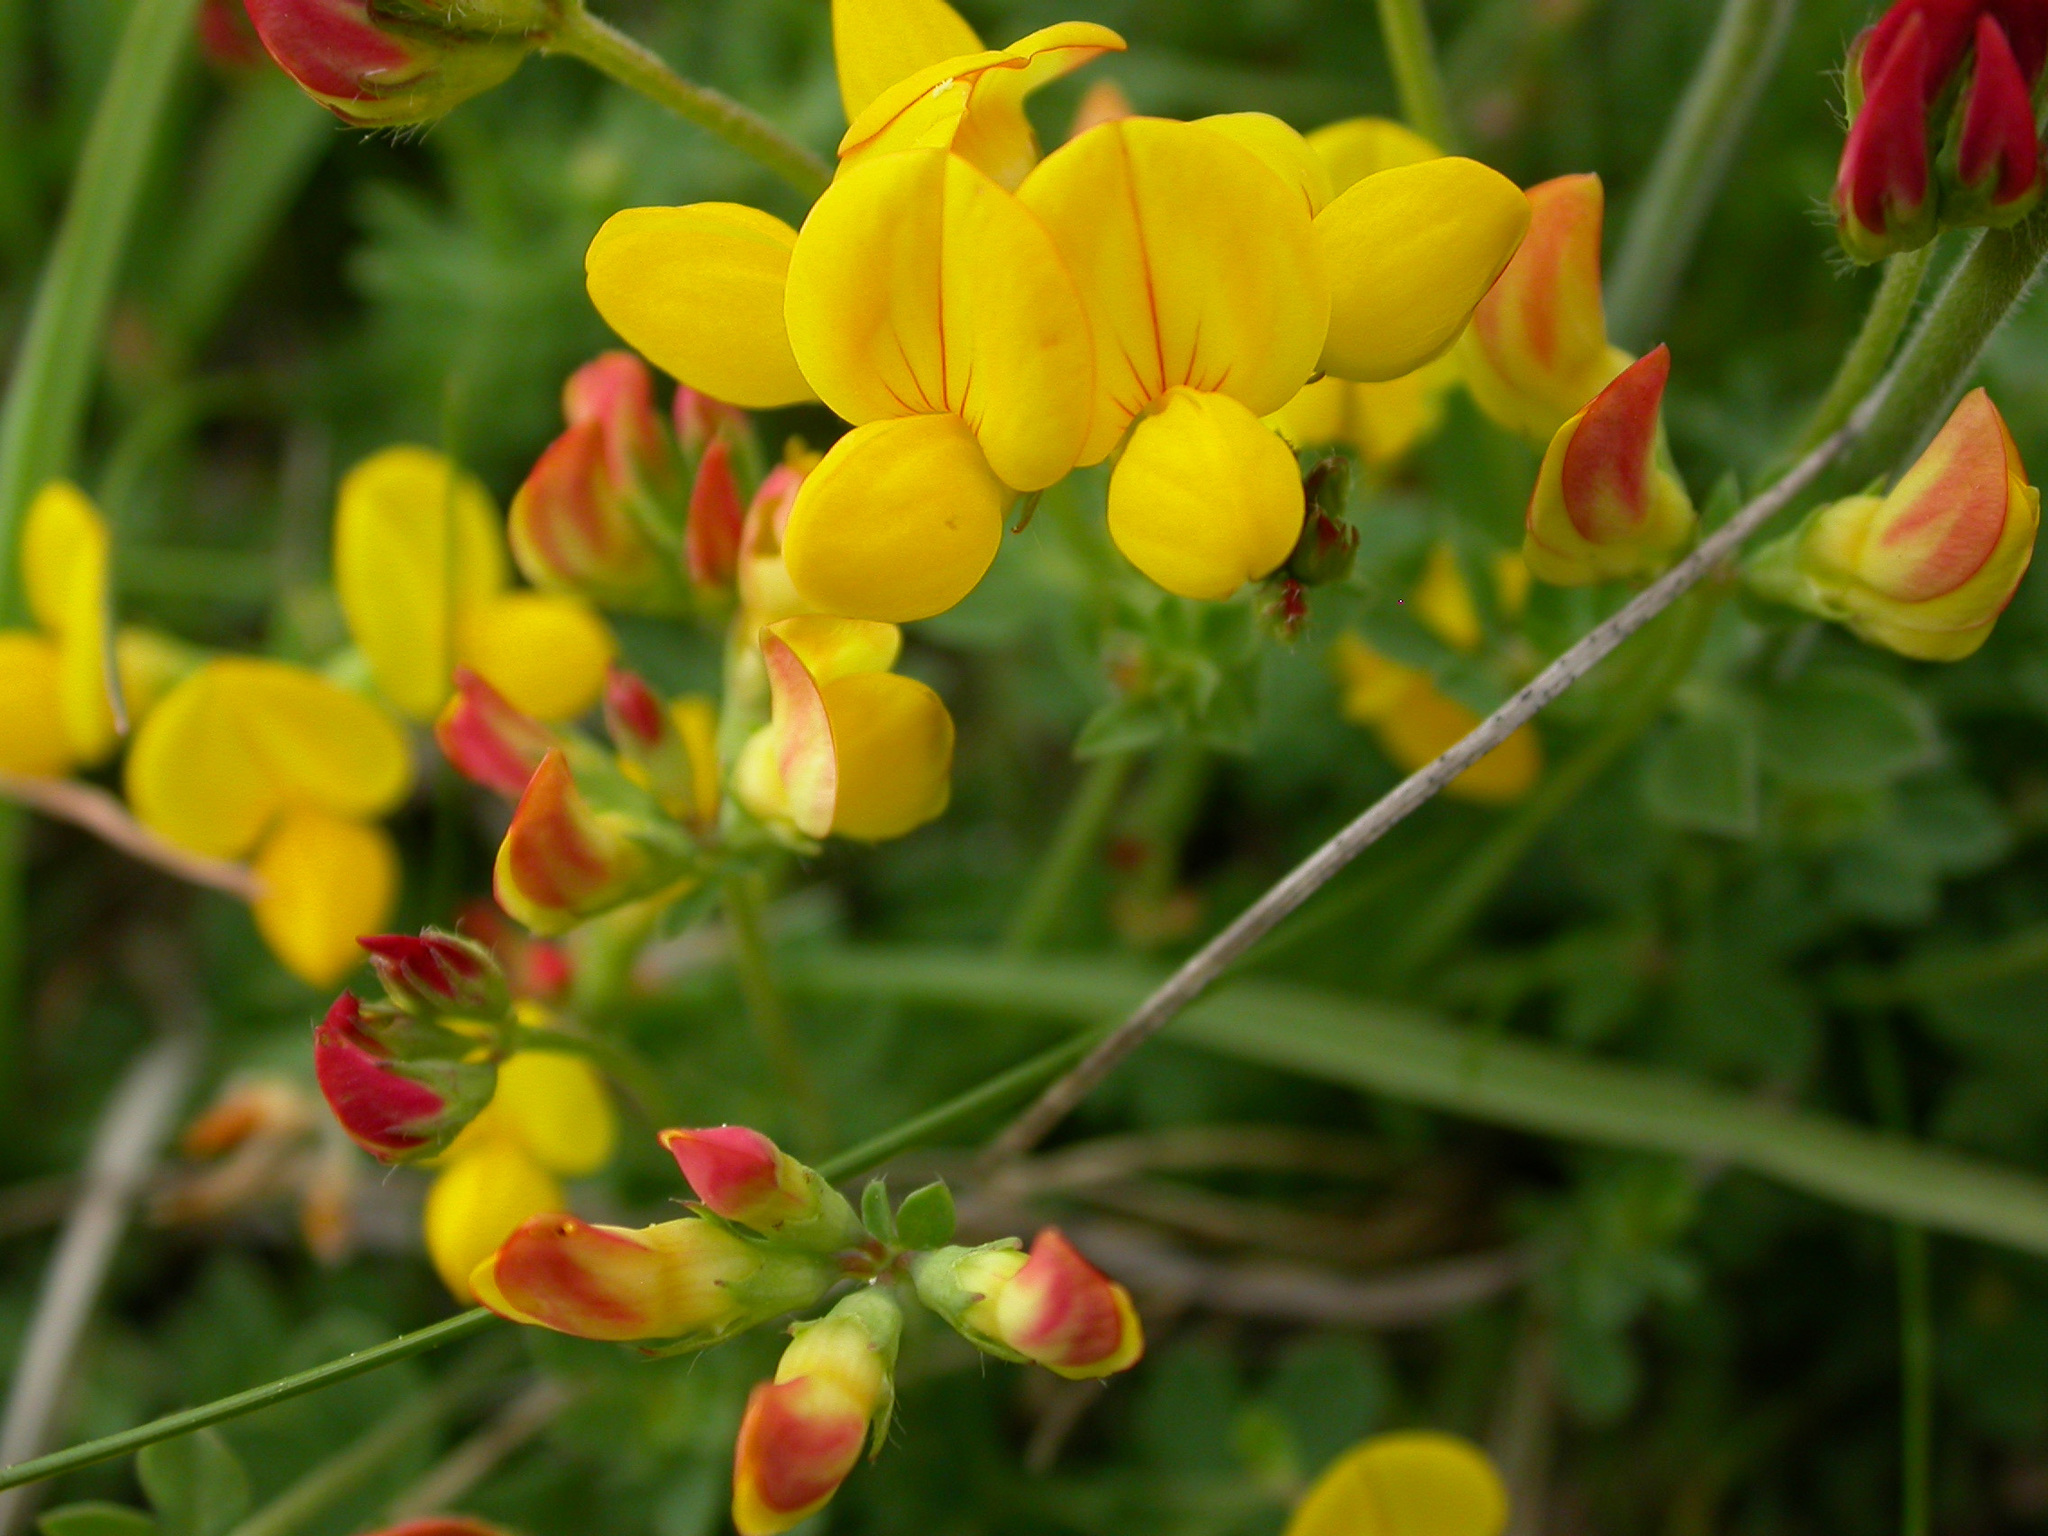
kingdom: Plantae
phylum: Tracheophyta
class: Magnoliopsida
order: Fabales
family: Fabaceae
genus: Lotus
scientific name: Lotus corniculatus
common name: Common bird's-foot-trefoil
